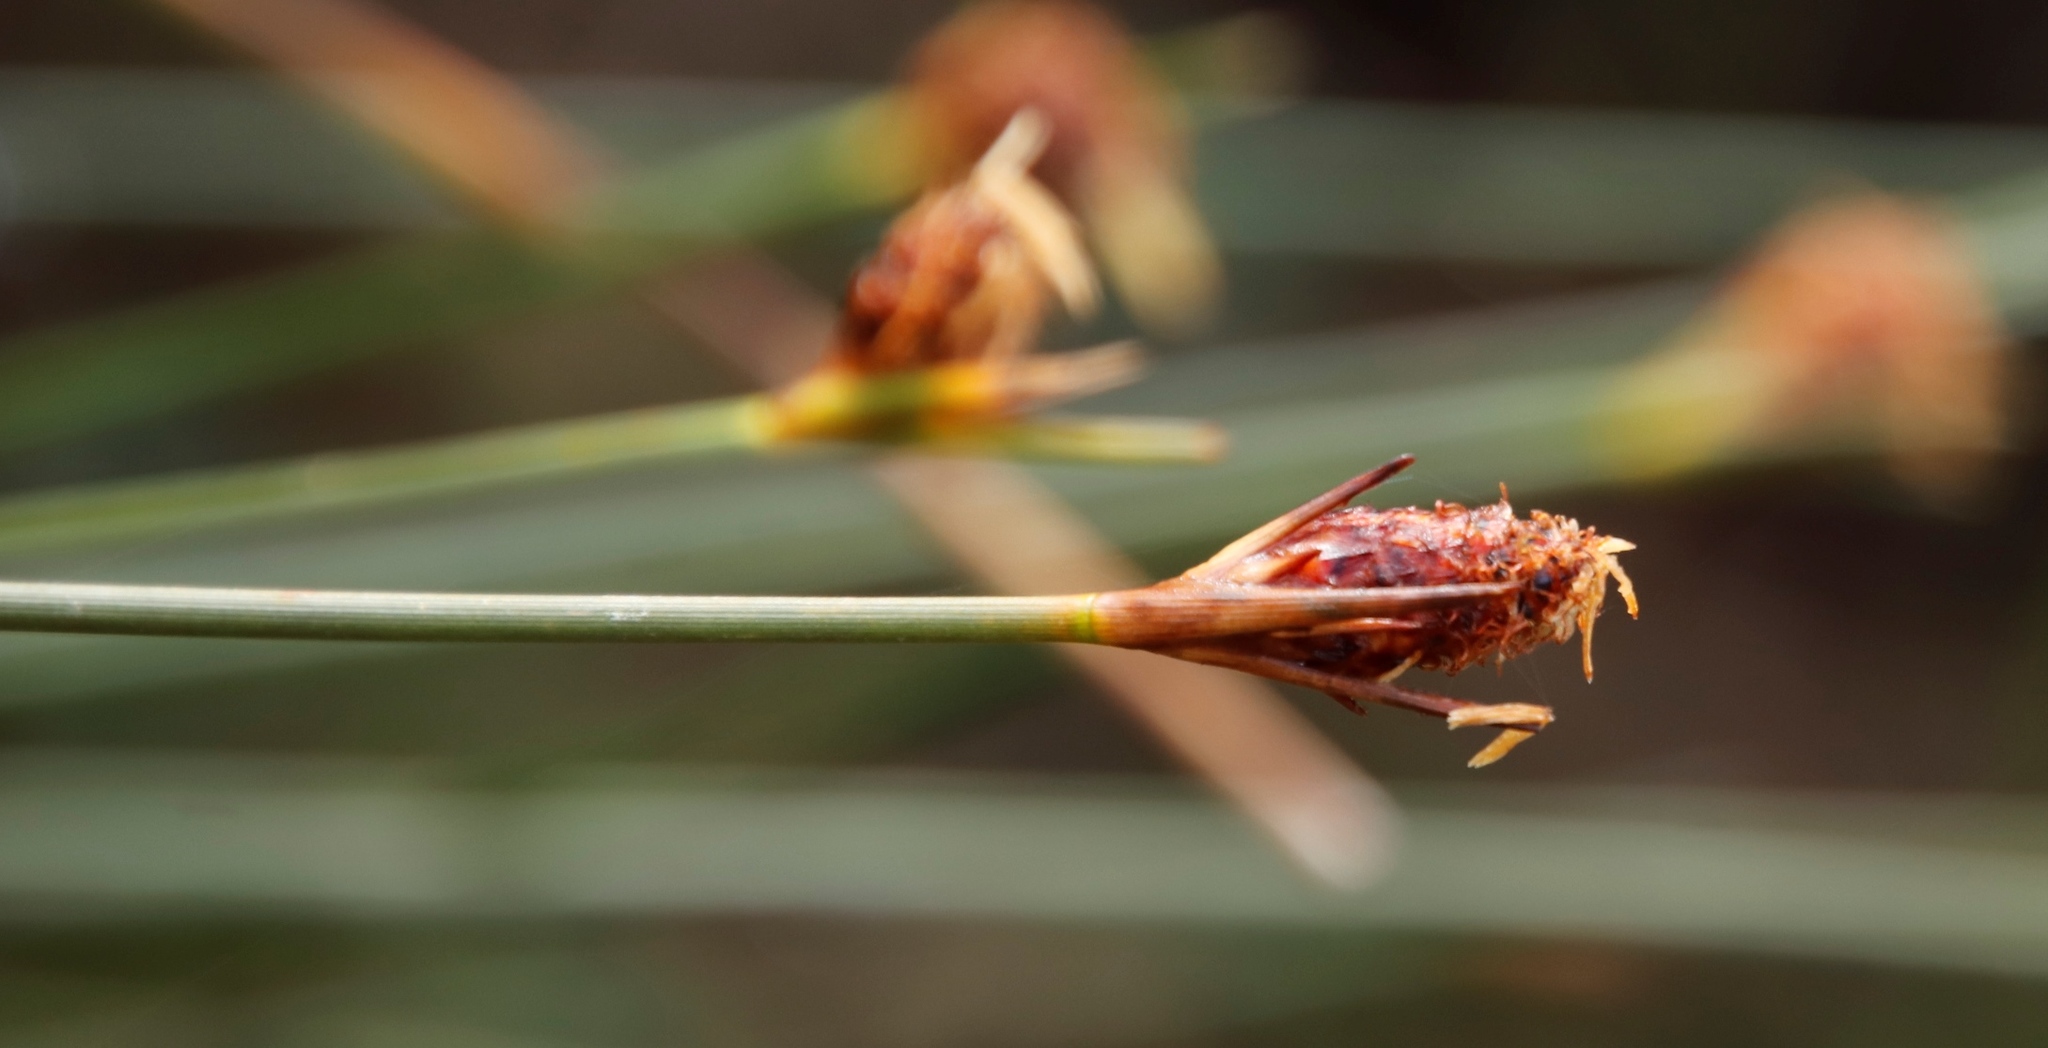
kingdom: Plantae
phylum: Tracheophyta
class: Liliopsida
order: Poales
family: Cyperaceae
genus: Hellmuthia
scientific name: Hellmuthia membranacea
